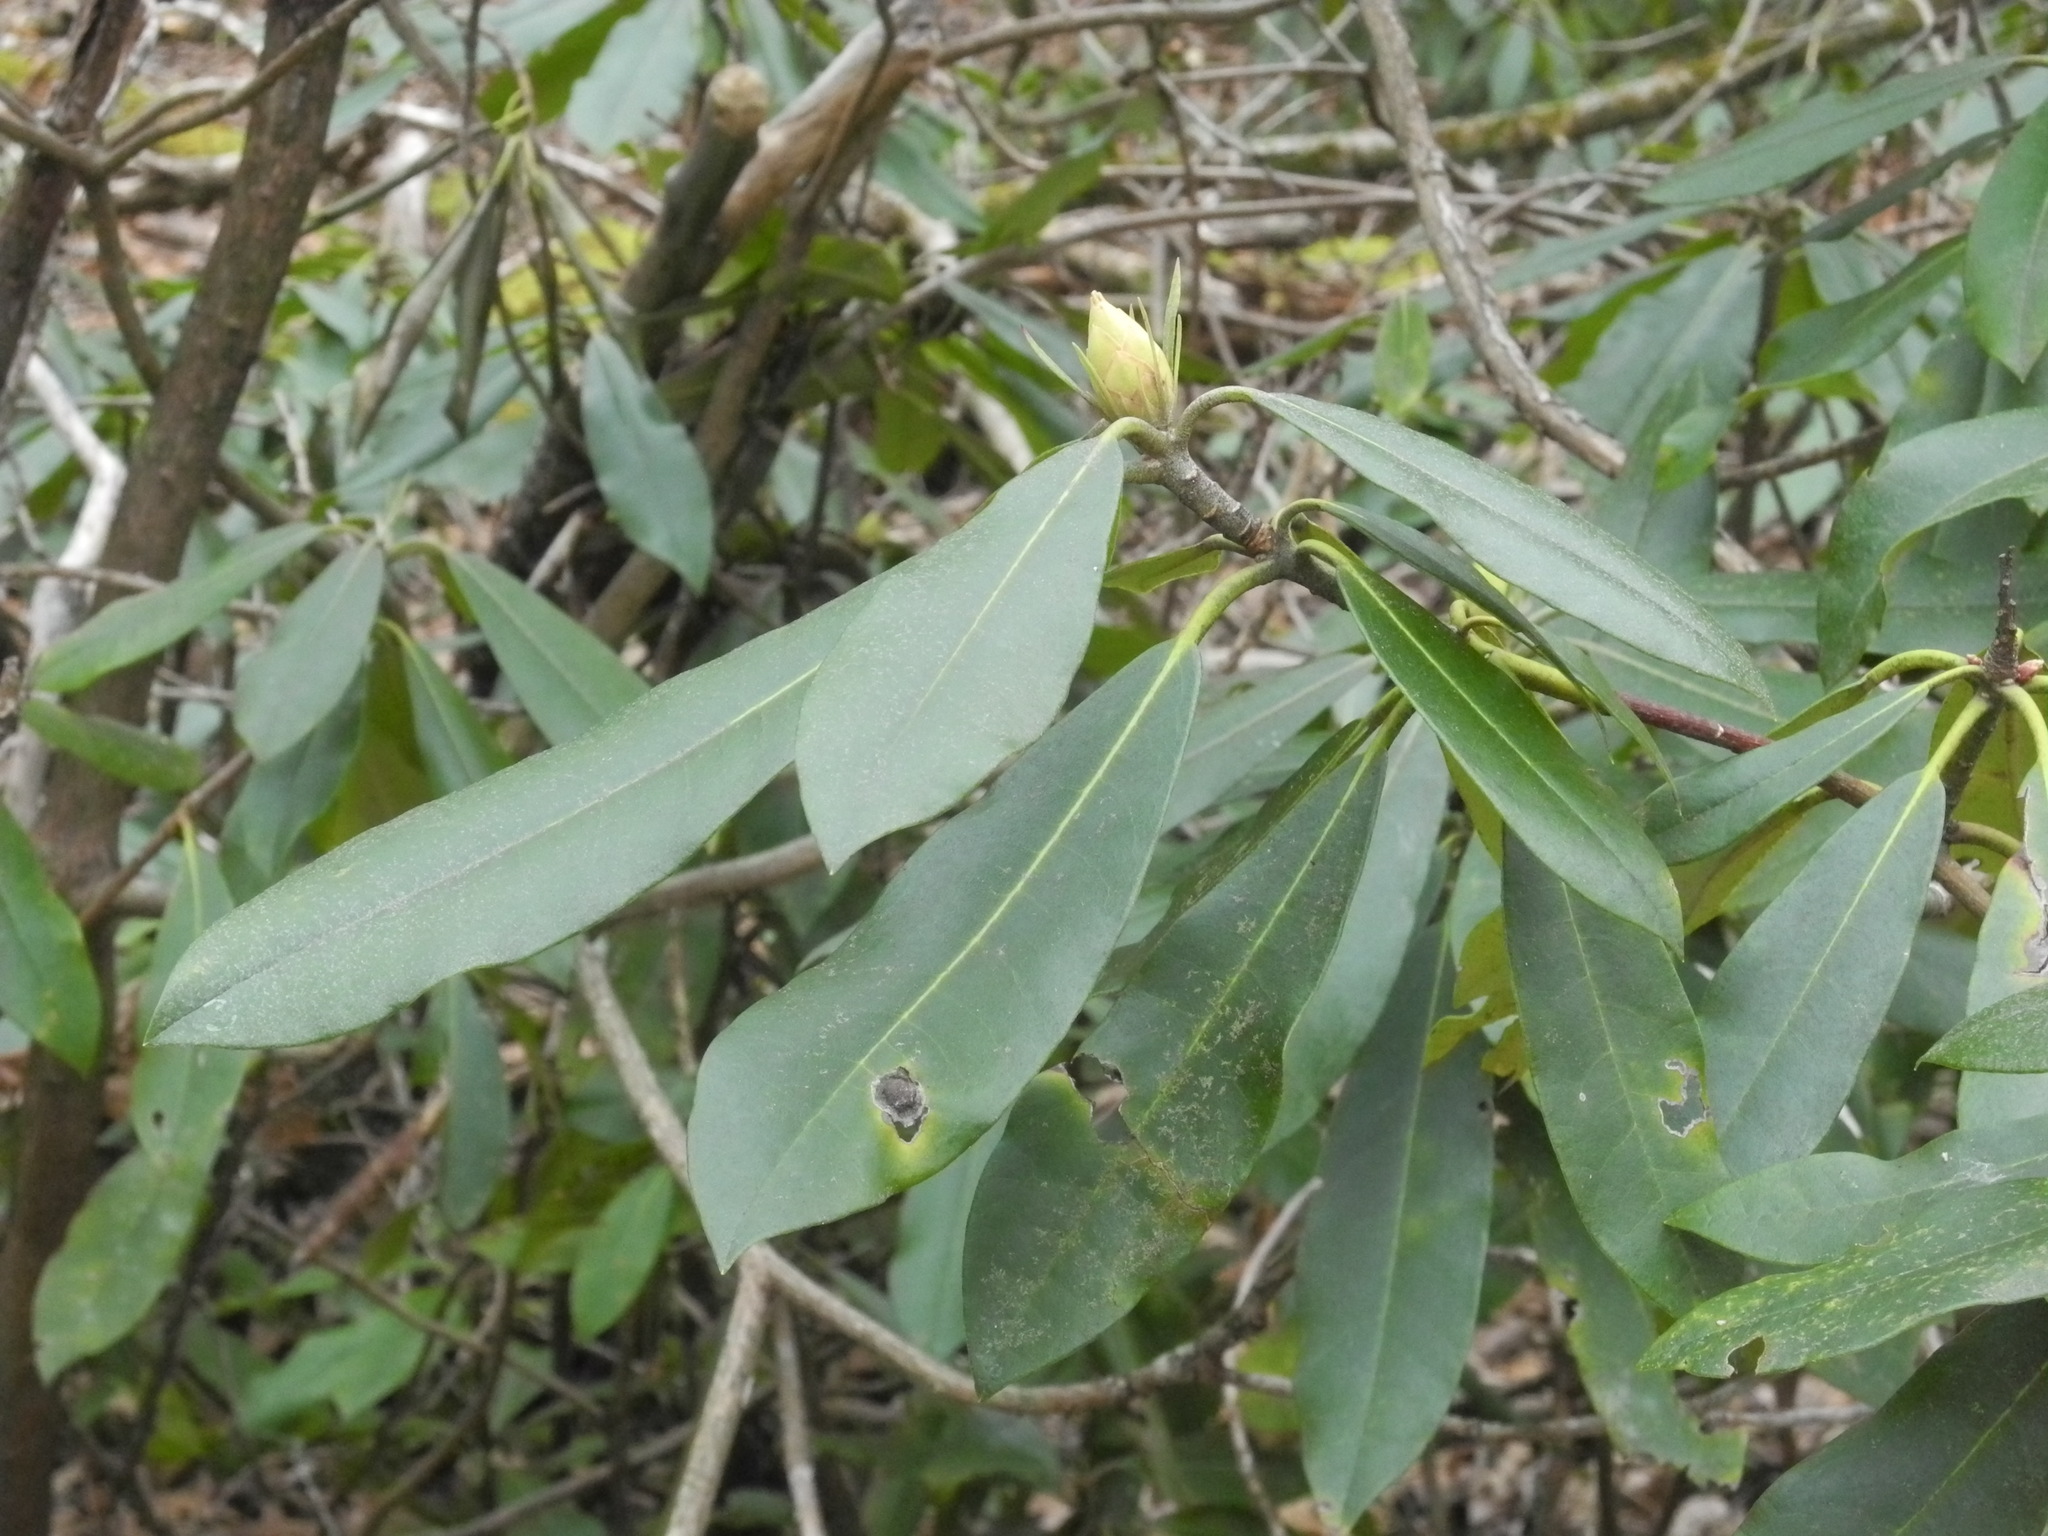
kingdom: Plantae
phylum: Tracheophyta
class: Magnoliopsida
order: Ericales
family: Ericaceae
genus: Rhododendron
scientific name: Rhododendron maximum
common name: Great rhododendron
